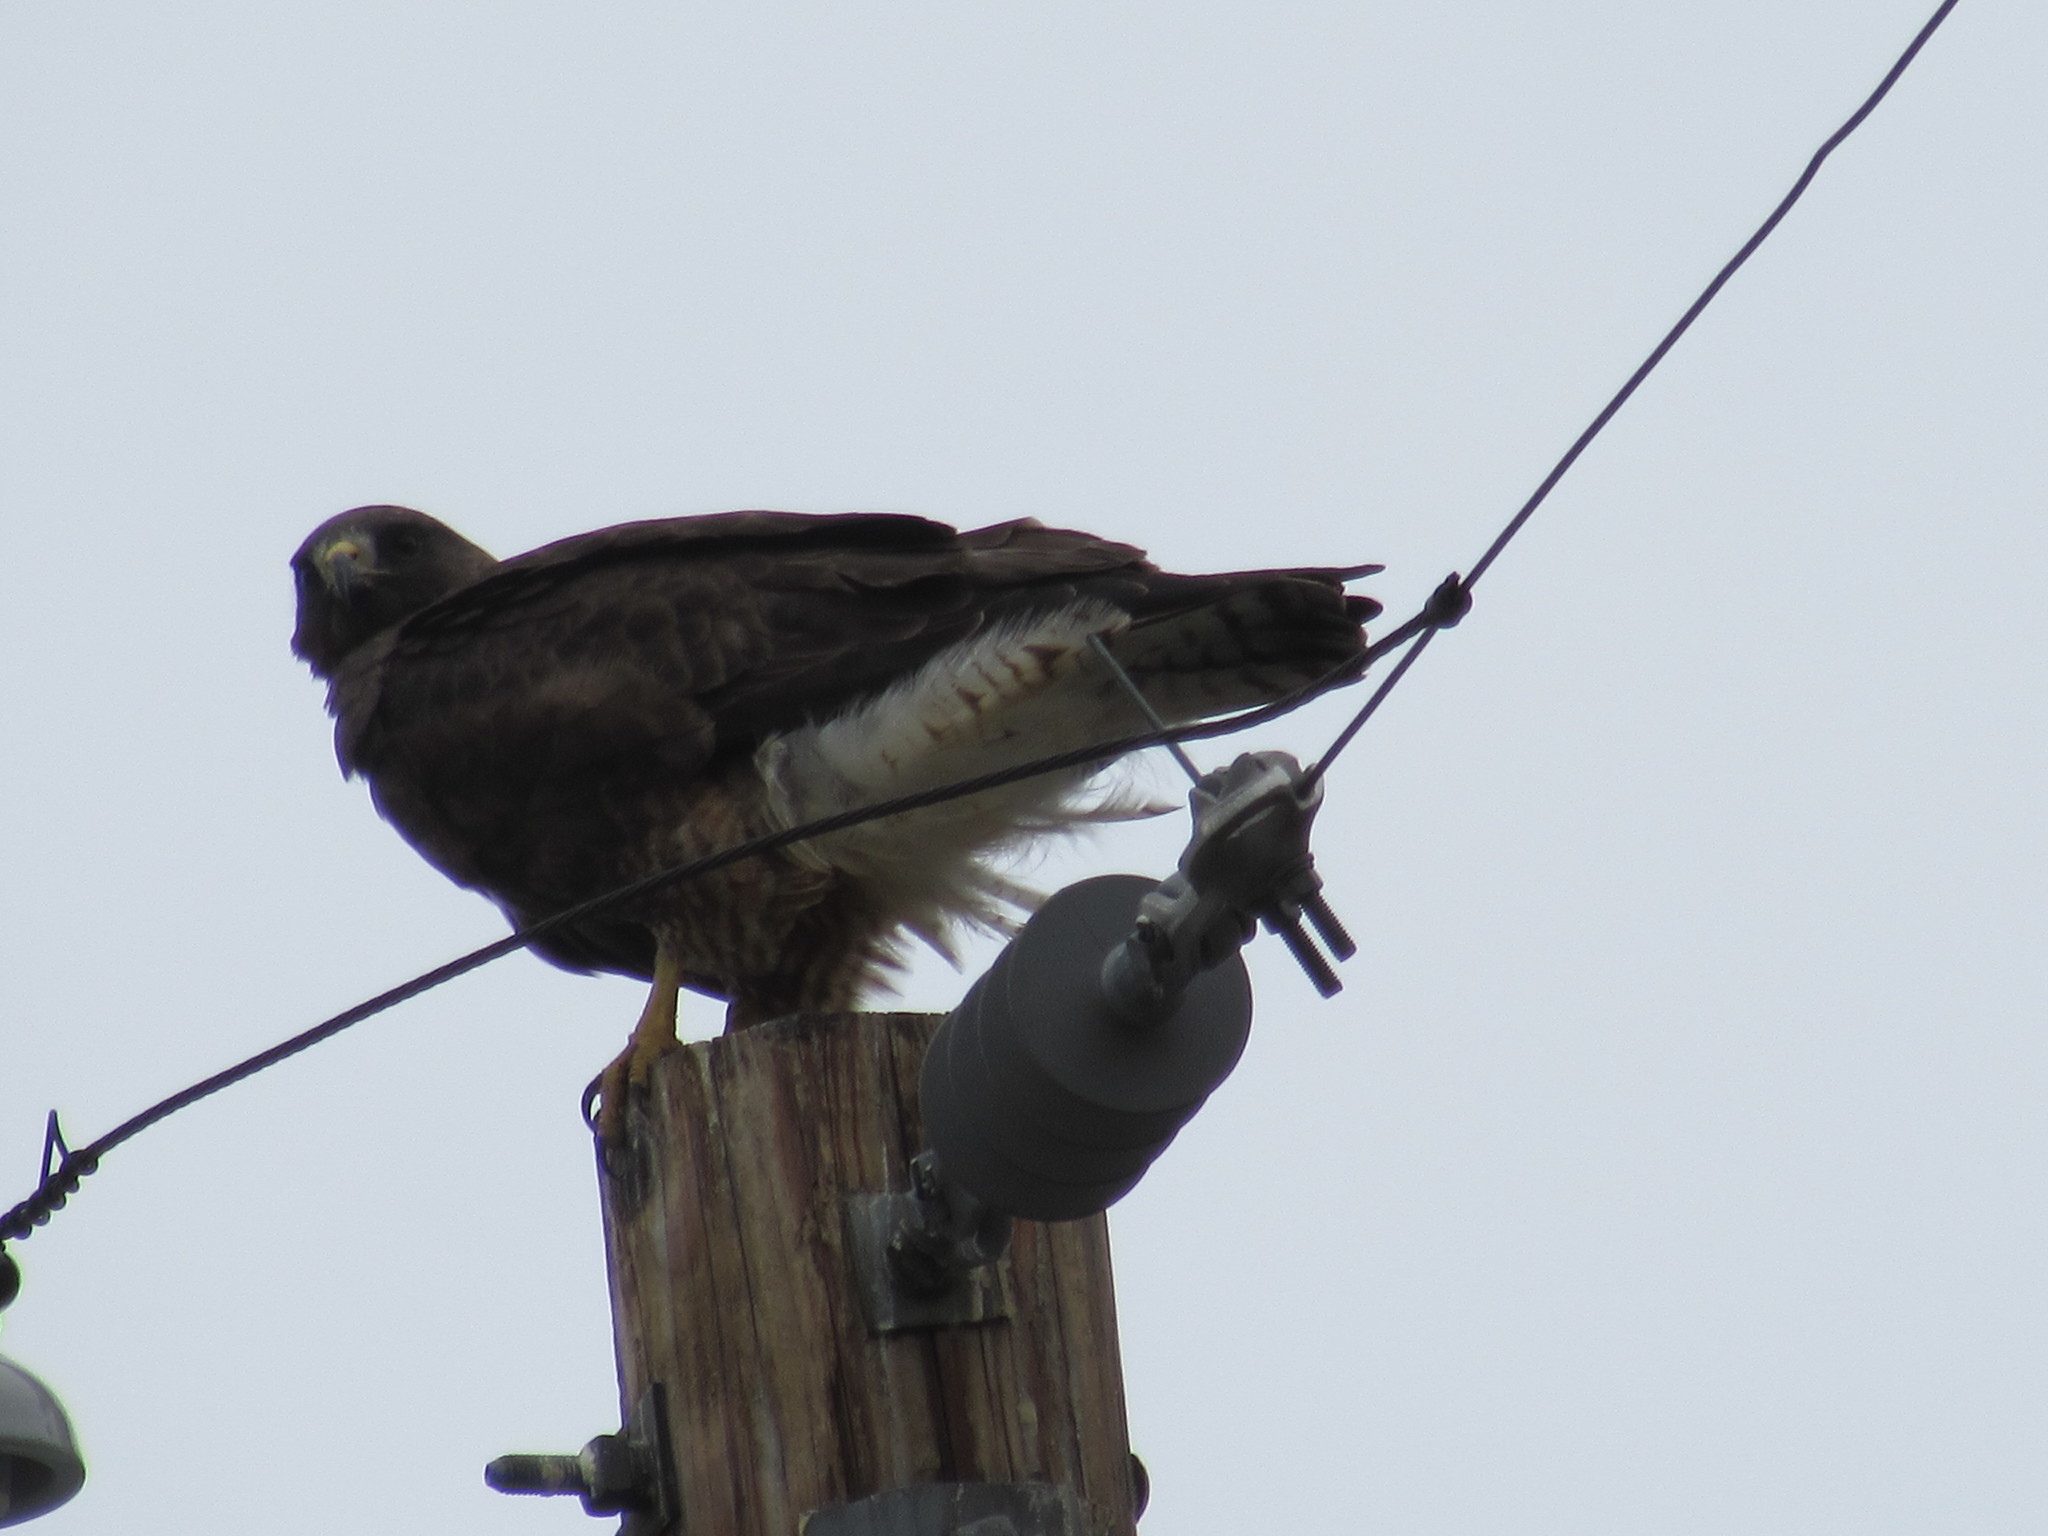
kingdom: Animalia
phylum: Chordata
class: Aves
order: Accipitriformes
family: Accipitridae
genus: Buteo
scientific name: Buteo swainsoni
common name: Swainson's hawk
